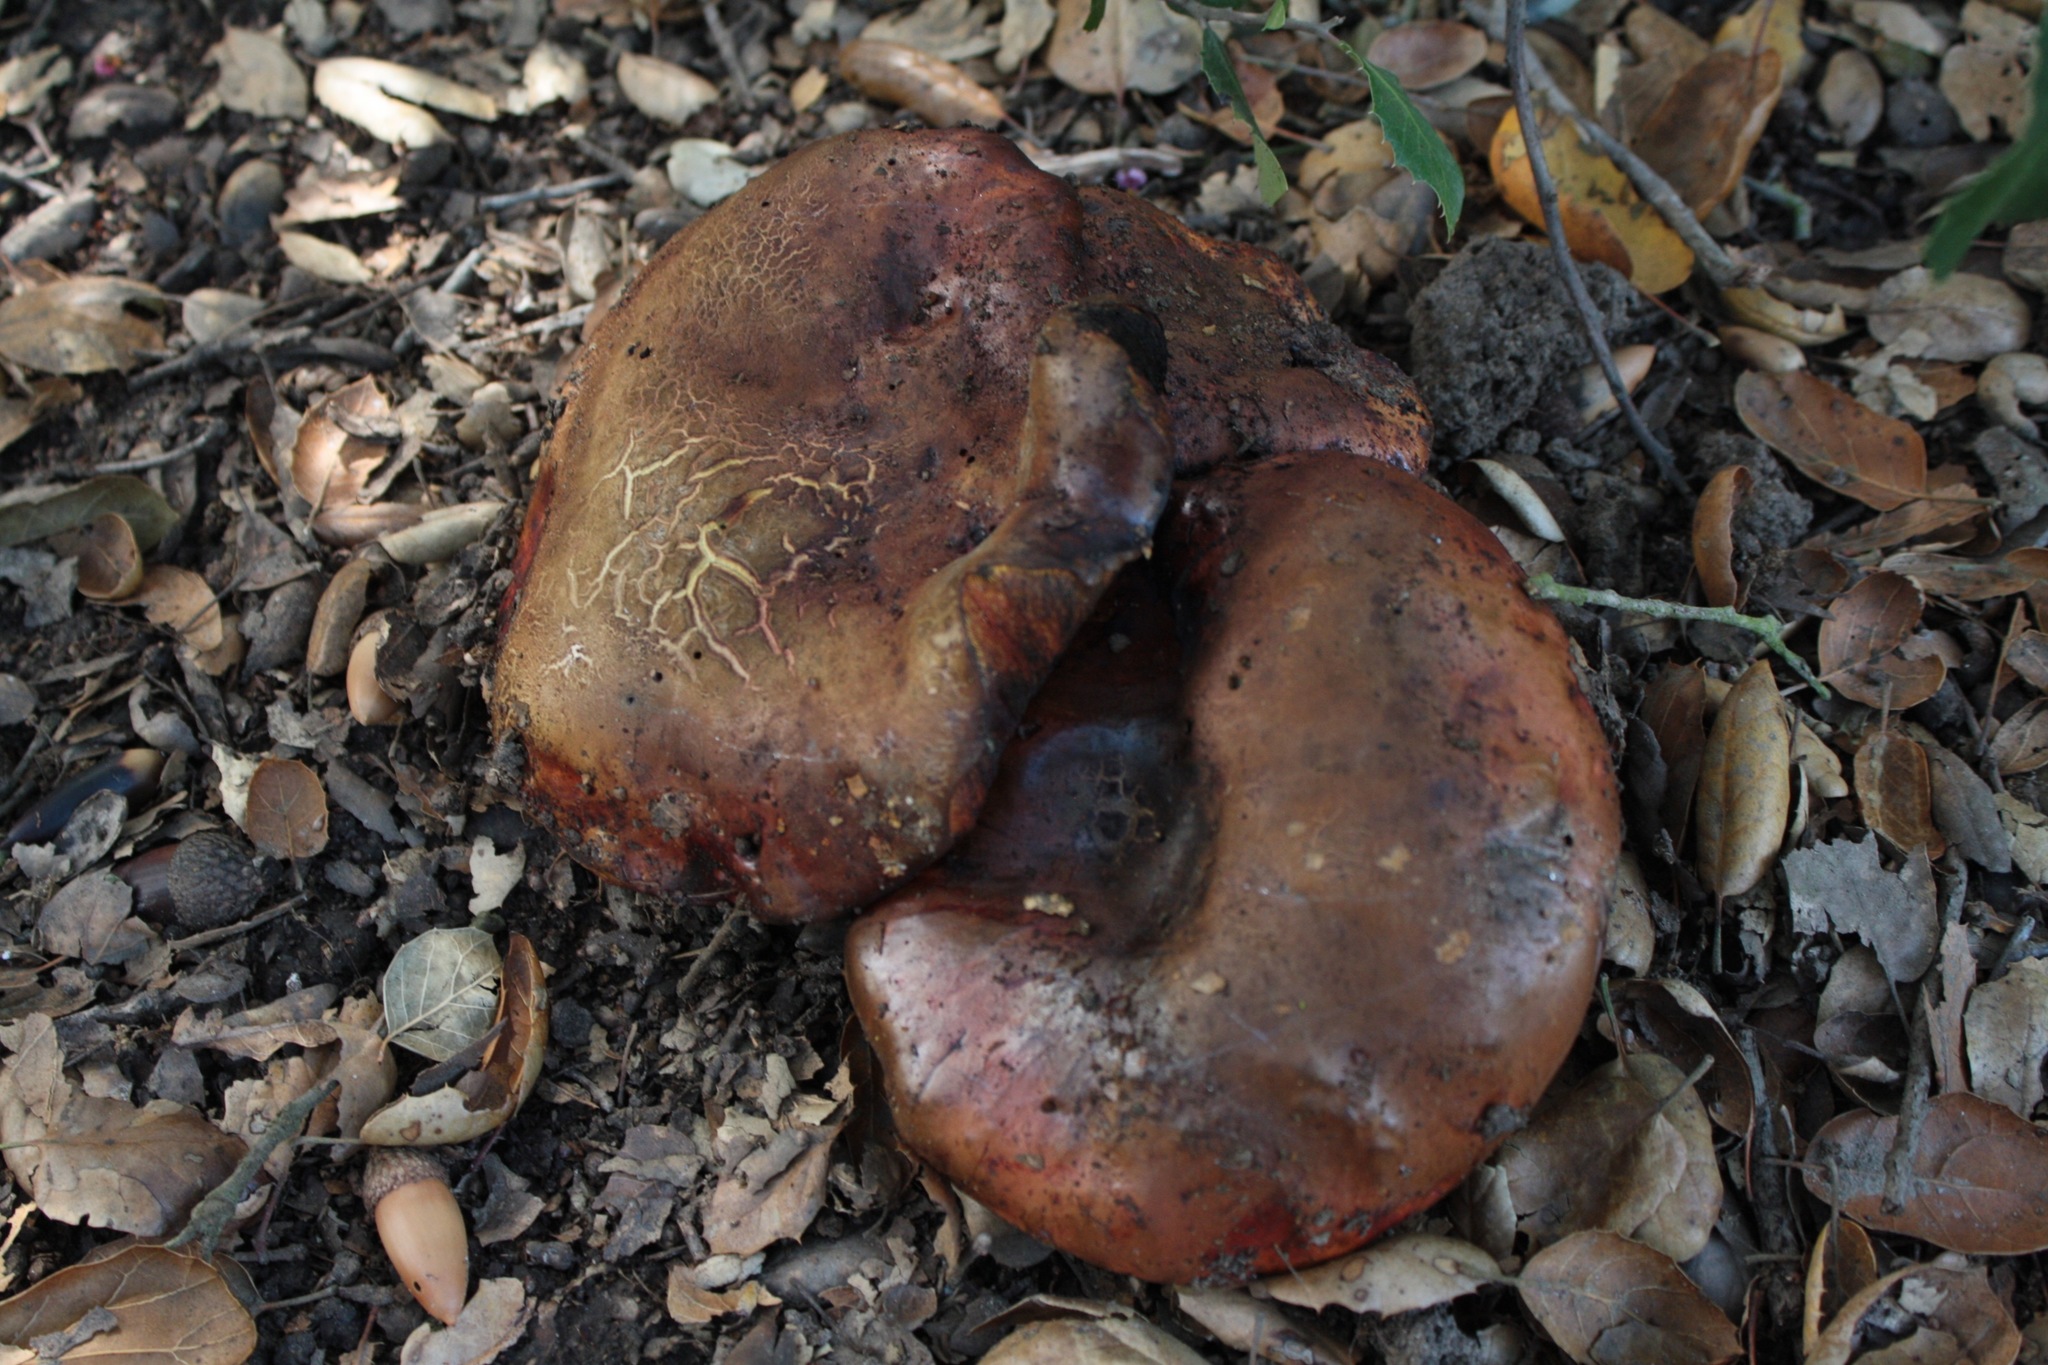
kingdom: Fungi
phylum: Basidiomycota
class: Agaricomycetes
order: Boletales
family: Boletaceae
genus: Suillellus
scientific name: Suillellus amygdalinus
